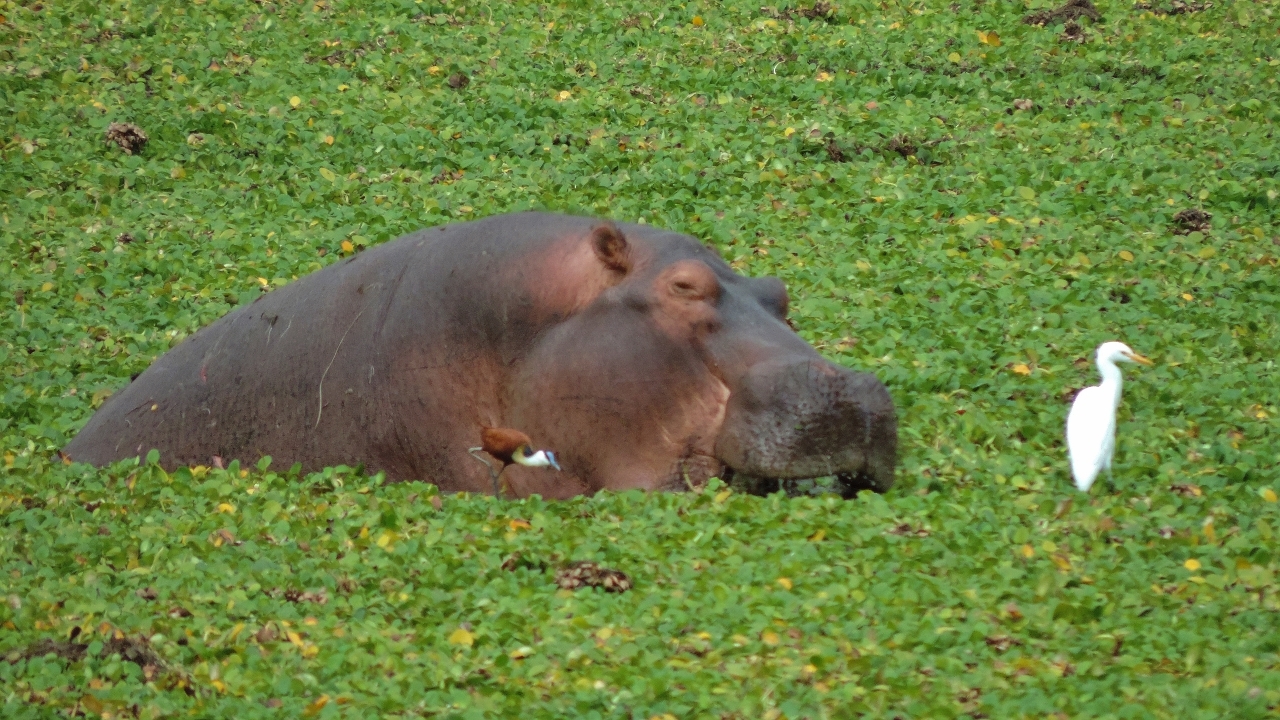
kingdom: Animalia
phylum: Chordata
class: Aves
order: Charadriiformes
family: Jacanidae
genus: Actophilornis
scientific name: Actophilornis africanus
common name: African jacana
